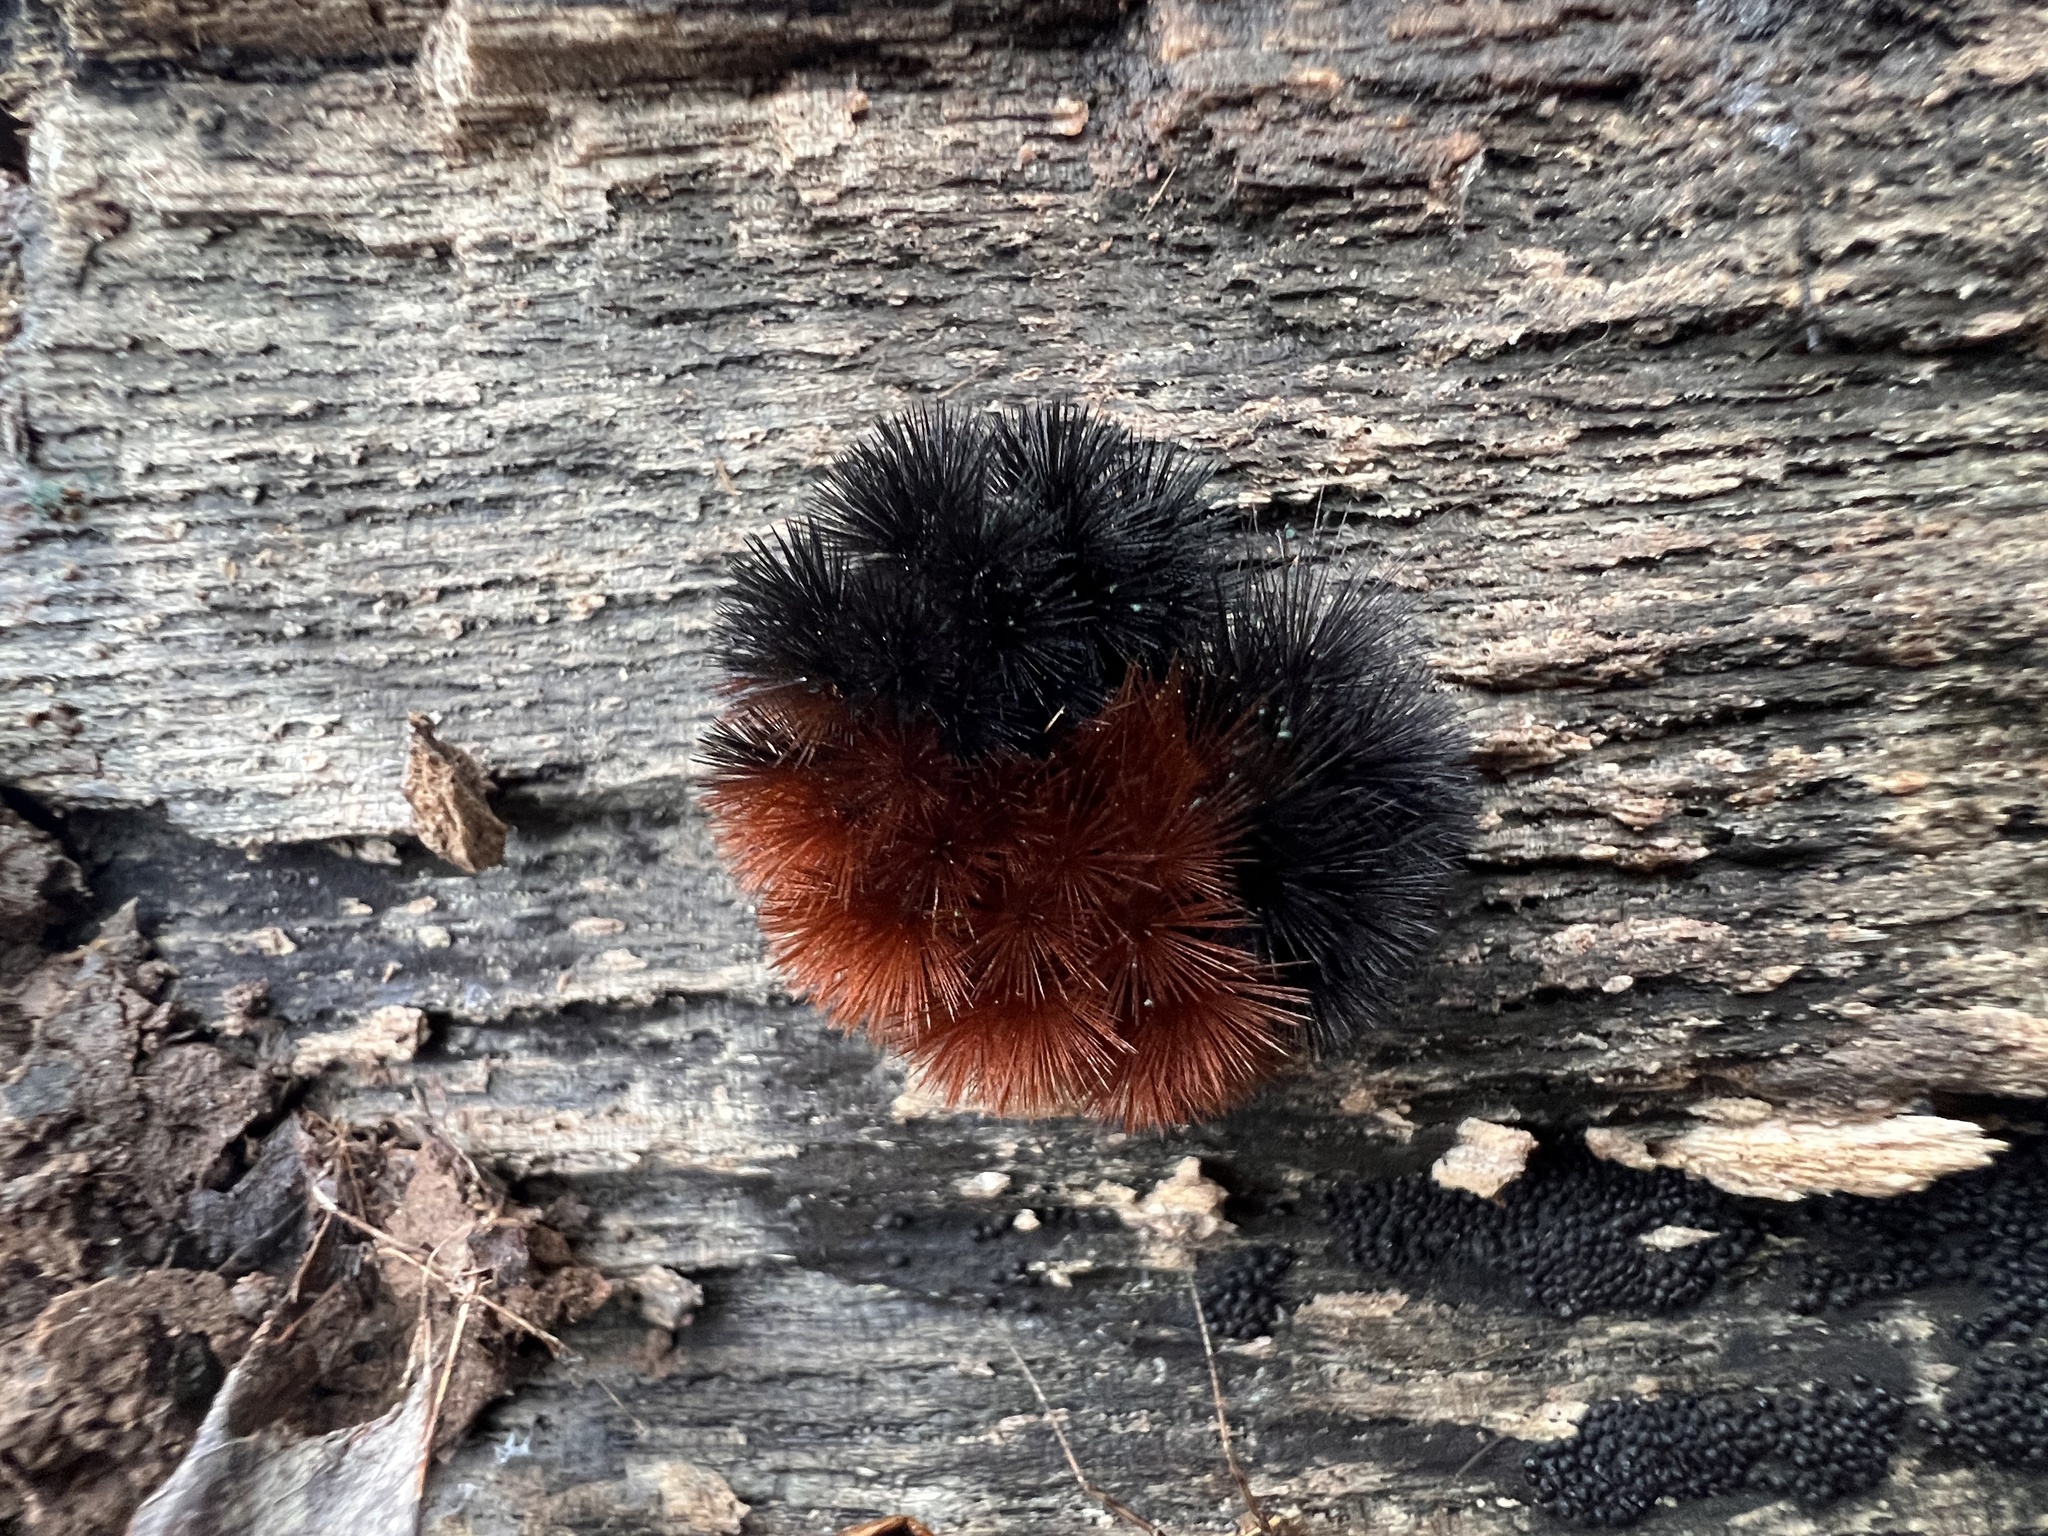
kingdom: Animalia
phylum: Arthropoda
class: Insecta
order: Lepidoptera
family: Erebidae
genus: Pyrrharctia
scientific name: Pyrrharctia isabella
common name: Isabella tiger moth
